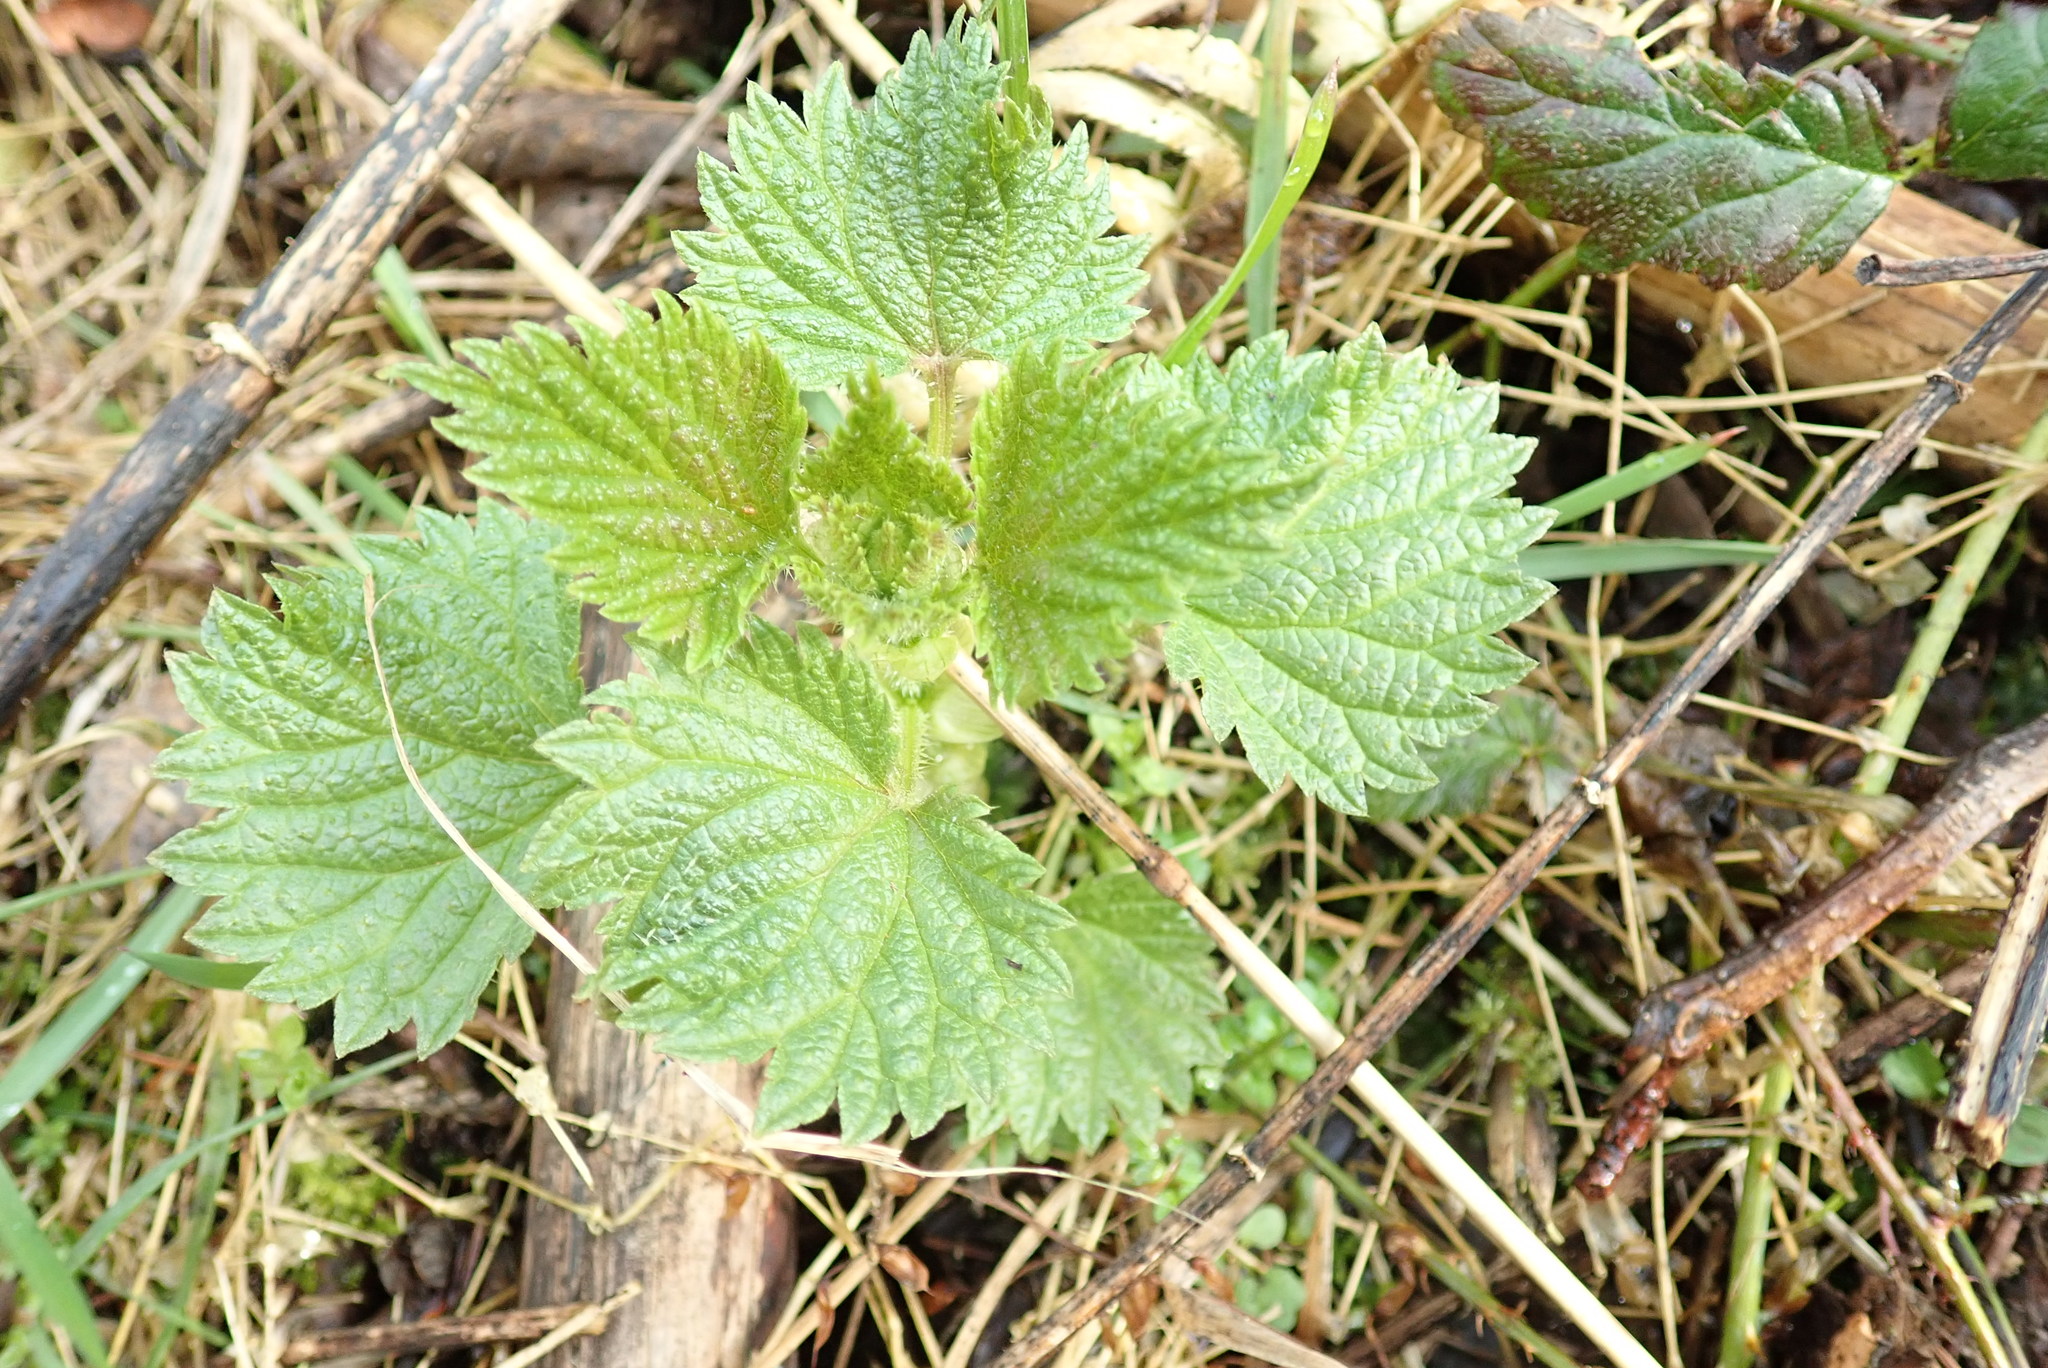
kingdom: Plantae
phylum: Tracheophyta
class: Magnoliopsida
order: Rosales
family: Urticaceae
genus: Urtica
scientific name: Urtica dioica
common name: Common nettle
